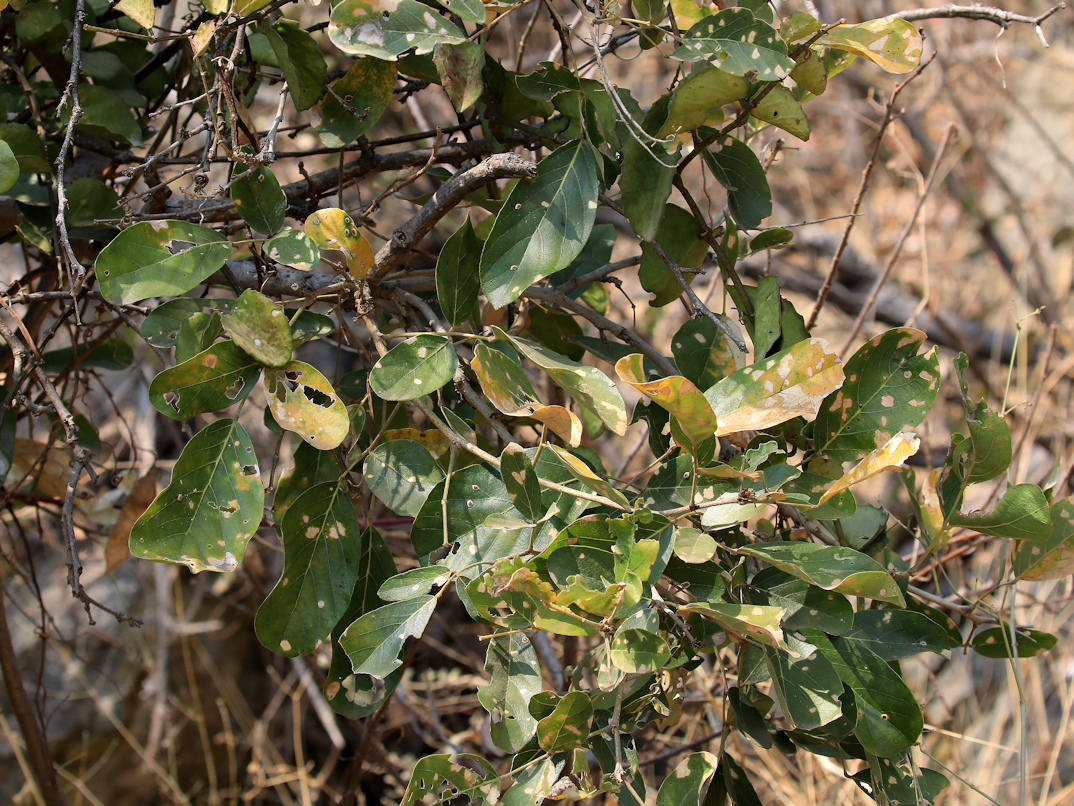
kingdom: Plantae
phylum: Tracheophyta
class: Magnoliopsida
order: Fabales
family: Fabaceae
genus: Philenoptera
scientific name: Philenoptera violacea
